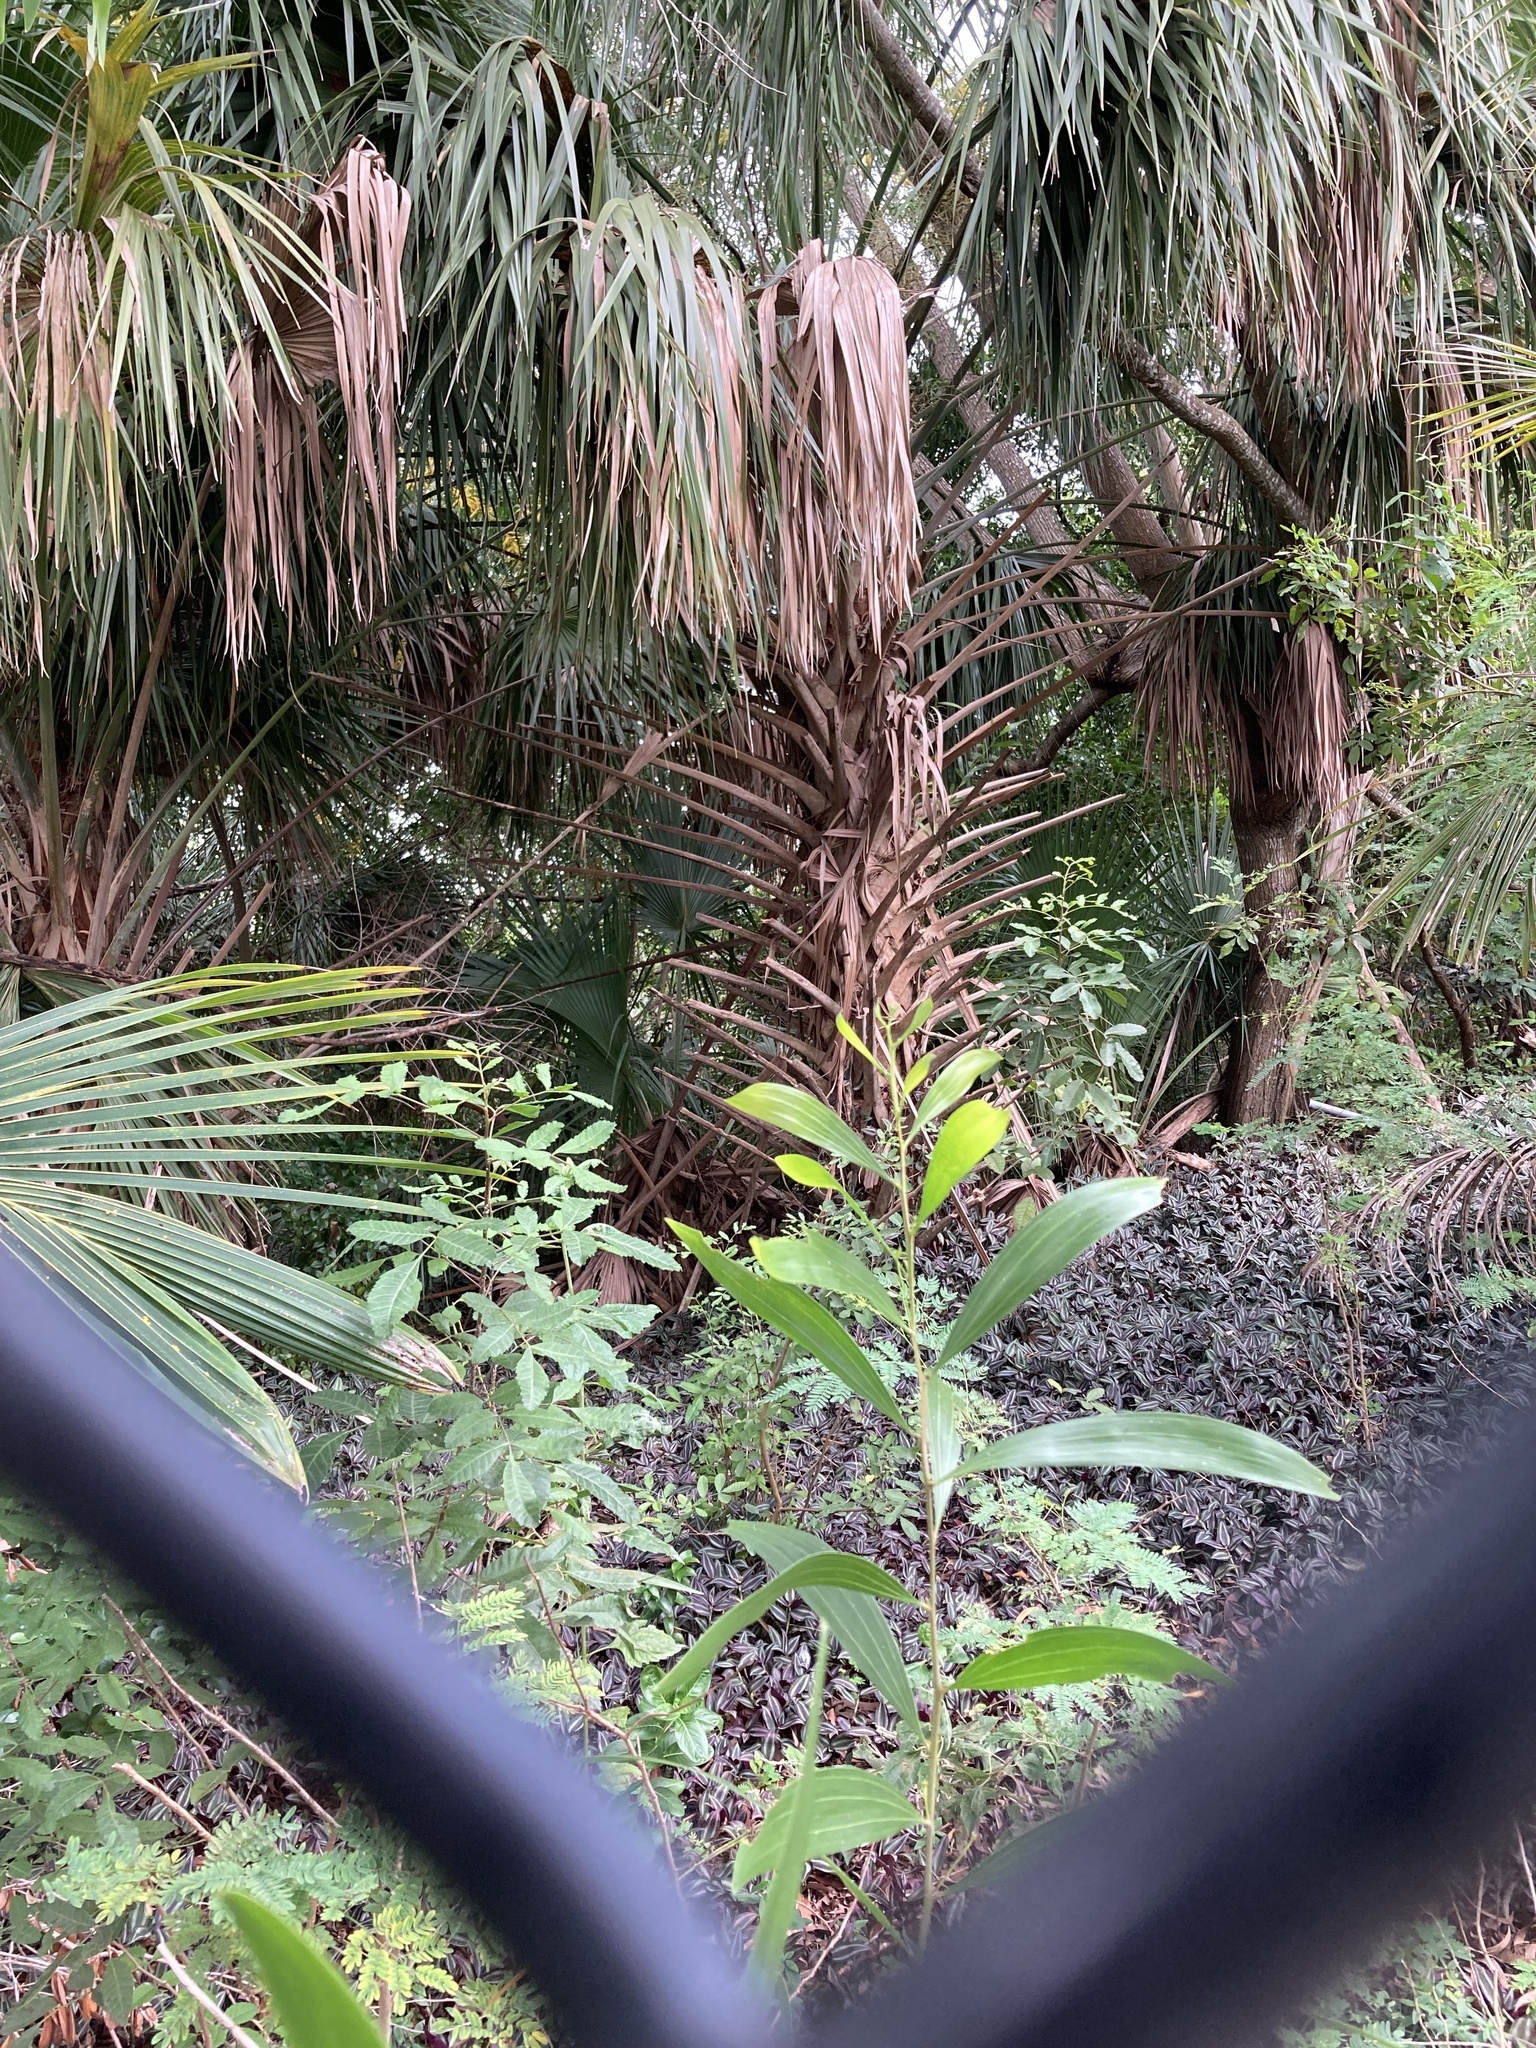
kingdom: Plantae
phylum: Tracheophyta
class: Liliopsida
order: Arecales
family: Arecaceae
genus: Sabal
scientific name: Sabal palmetto
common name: Blue palmetto
